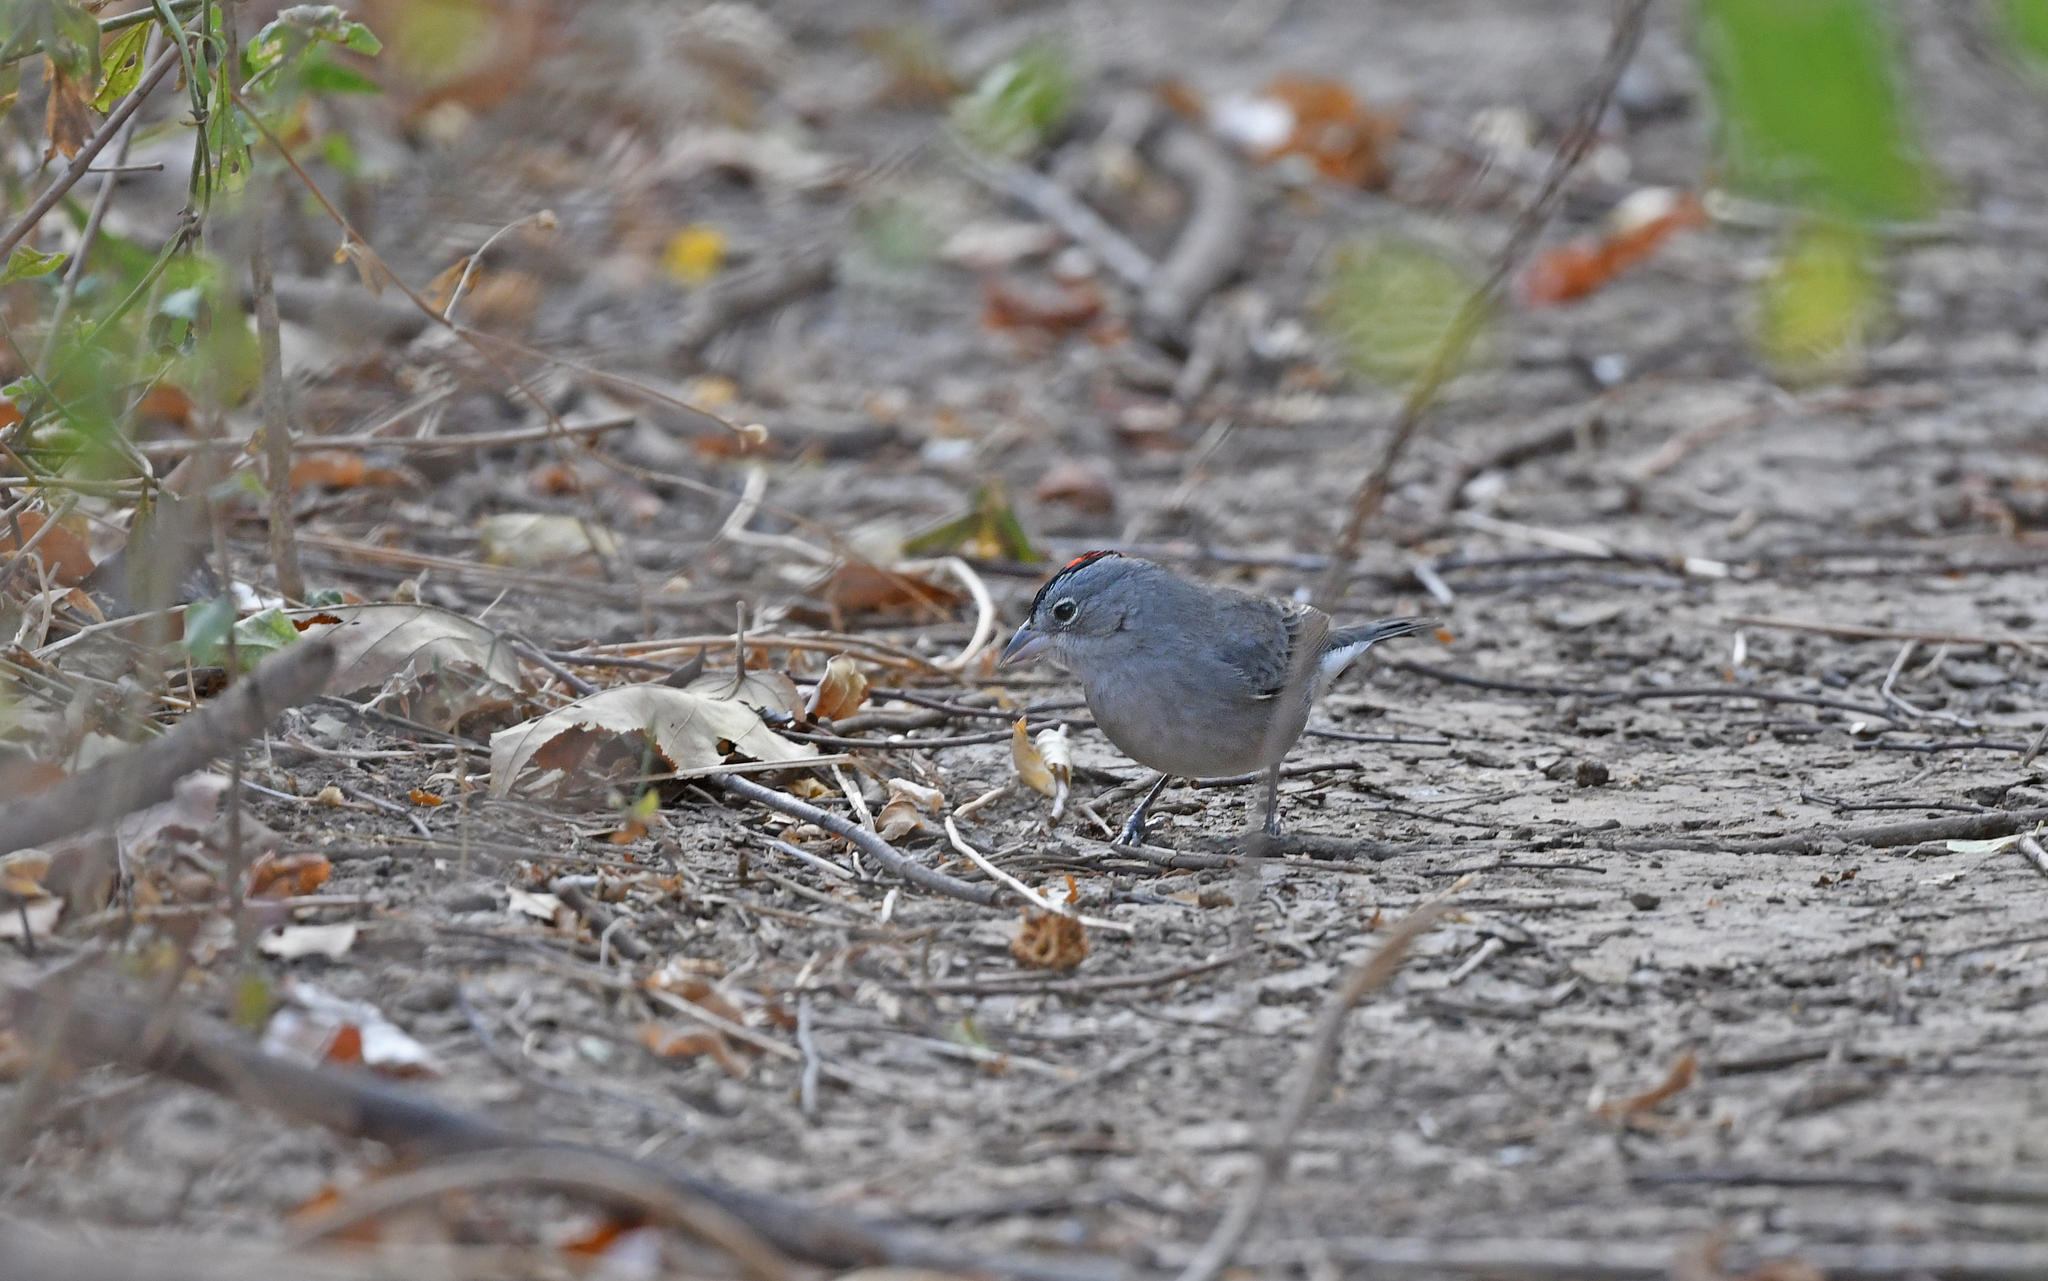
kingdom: Animalia
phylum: Chordata
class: Aves
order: Passeriformes
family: Thraupidae
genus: Coryphospingus
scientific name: Coryphospingus pileatus
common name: Grey pileated finch
